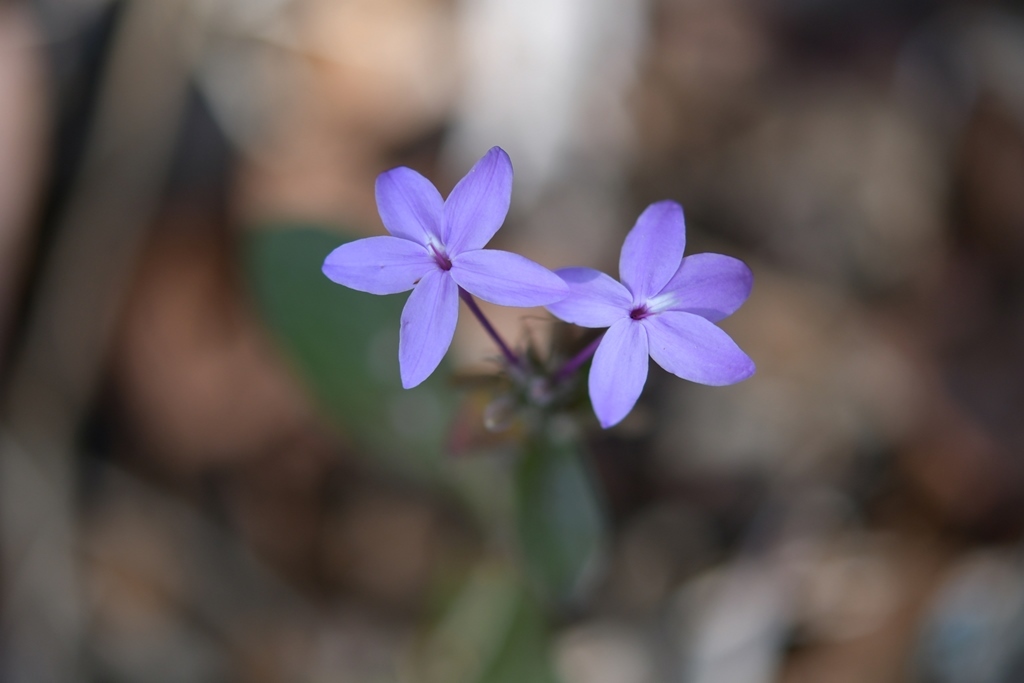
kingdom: Plantae
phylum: Tracheophyta
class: Magnoliopsida
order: Lamiales
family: Acanthaceae
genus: Pseuderanthemum
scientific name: Pseuderanthemum praecox
